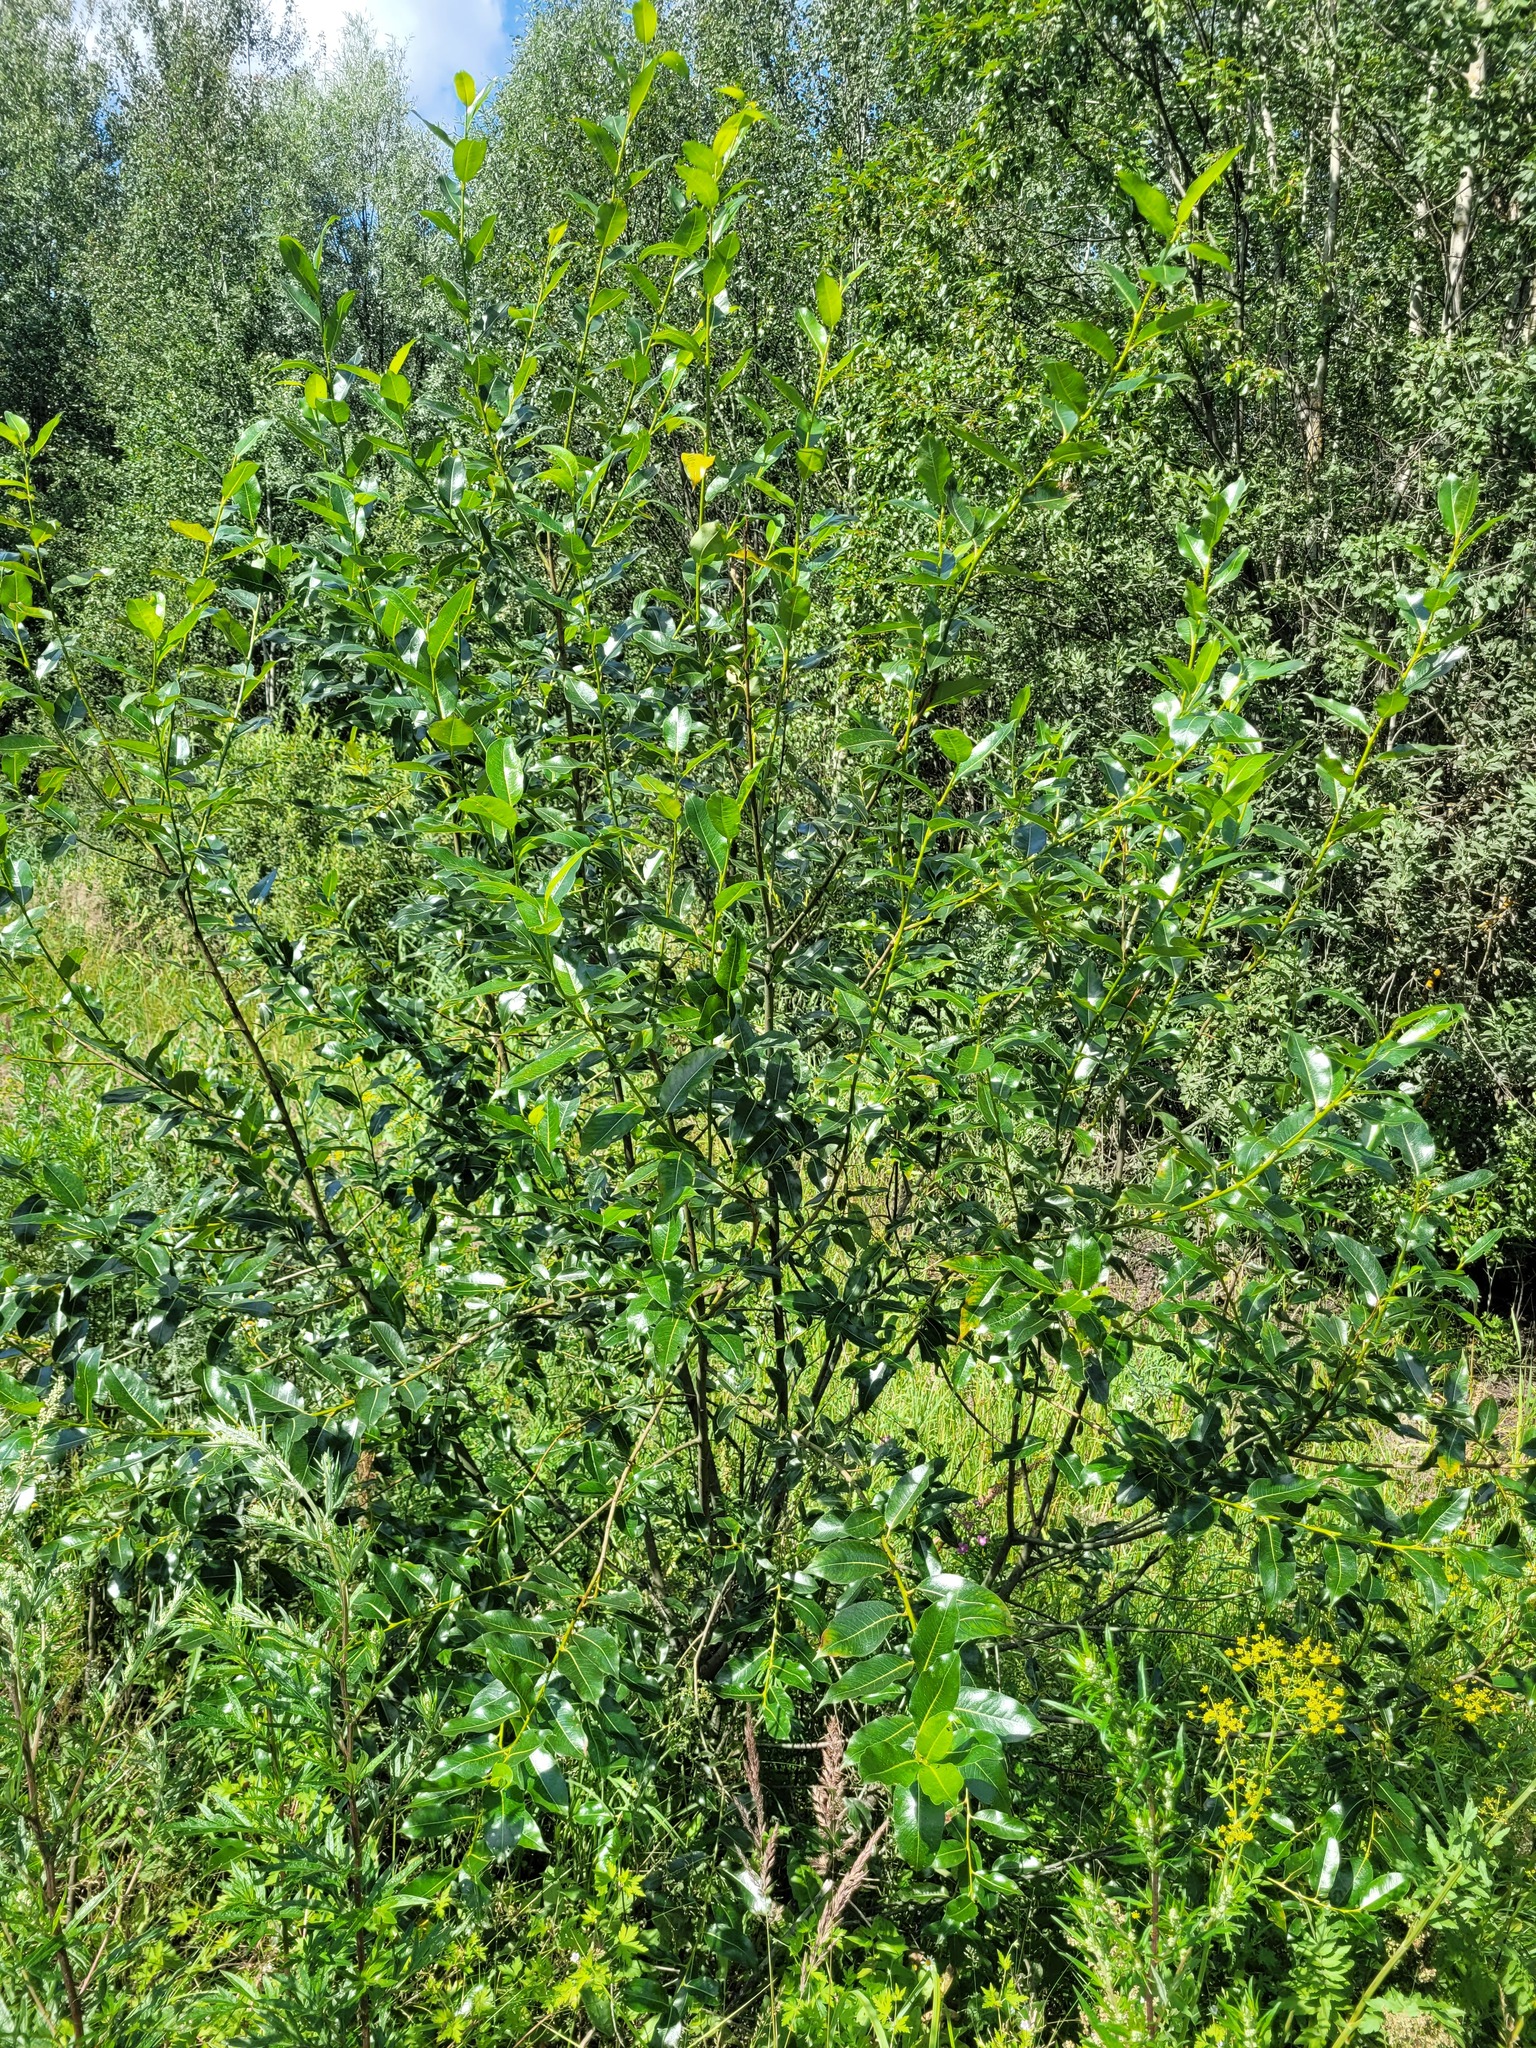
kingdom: Plantae
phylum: Tracheophyta
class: Magnoliopsida
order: Malpighiales
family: Salicaceae
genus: Salix
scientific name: Salix pentandra
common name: Bay willow
